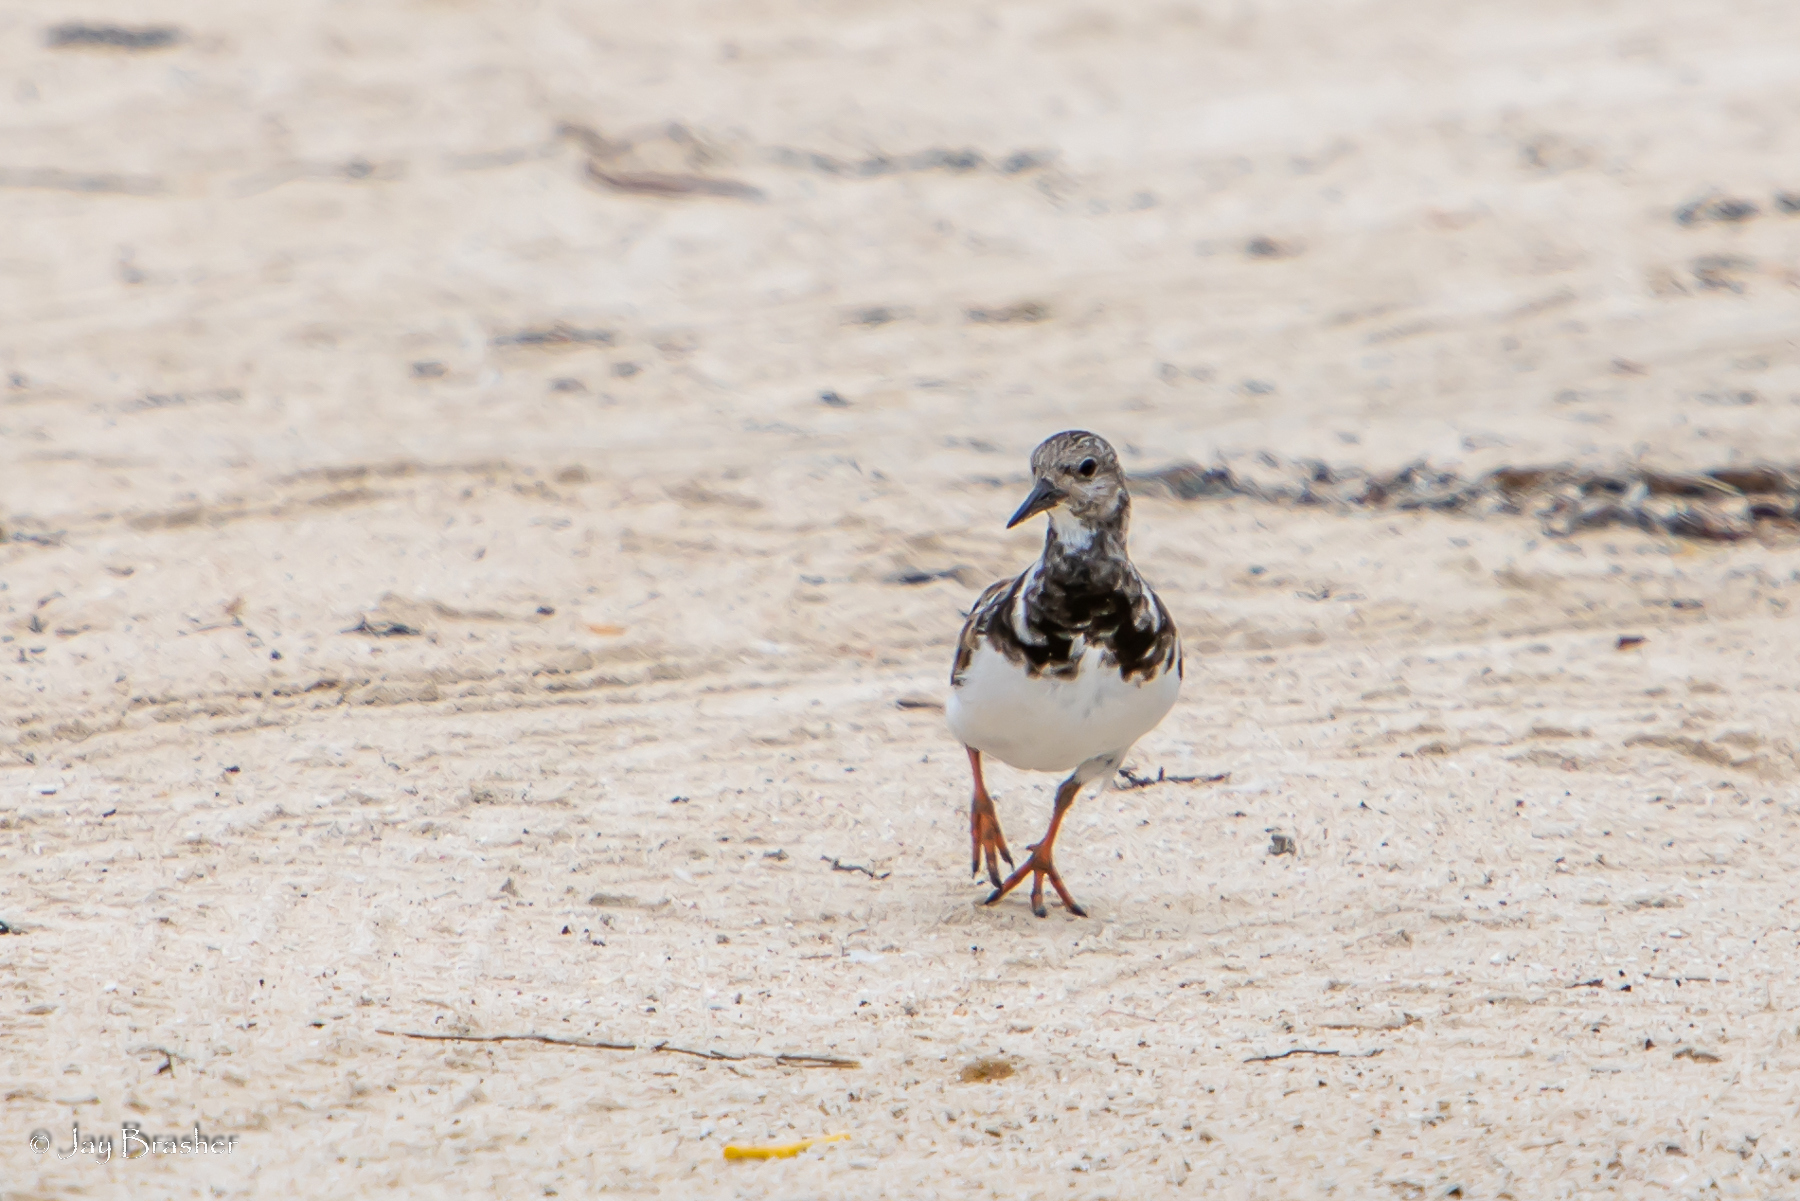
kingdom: Animalia
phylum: Chordata
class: Aves
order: Charadriiformes
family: Scolopacidae
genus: Arenaria
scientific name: Arenaria interpres
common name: Ruddy turnstone
